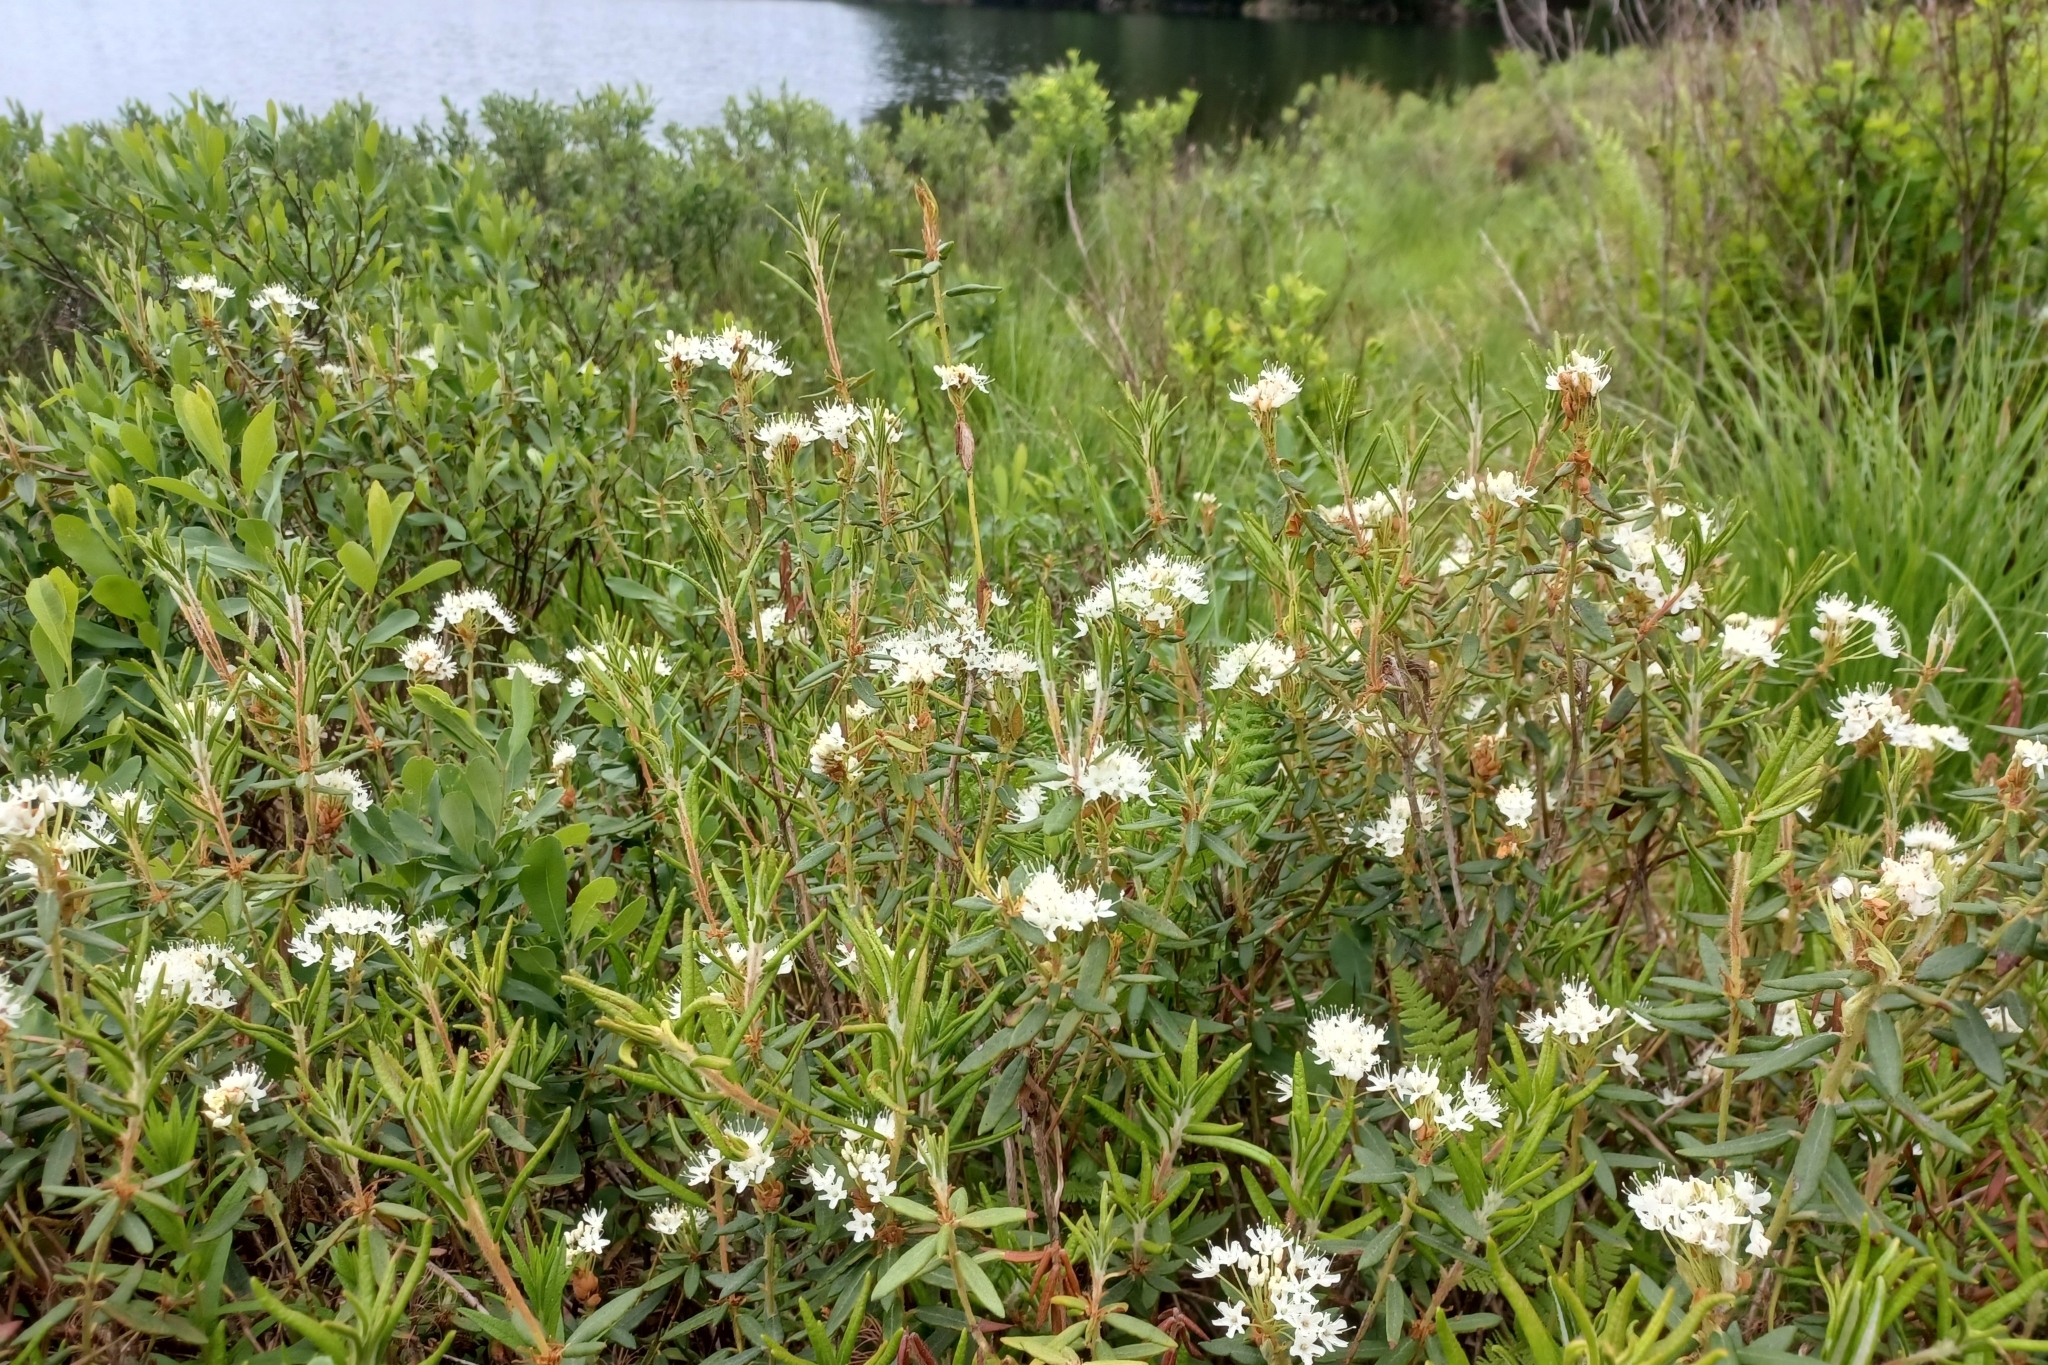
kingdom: Plantae
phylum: Tracheophyta
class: Magnoliopsida
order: Ericales
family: Ericaceae
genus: Rhododendron
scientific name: Rhododendron groenlandicum
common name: Bog labrador tea
